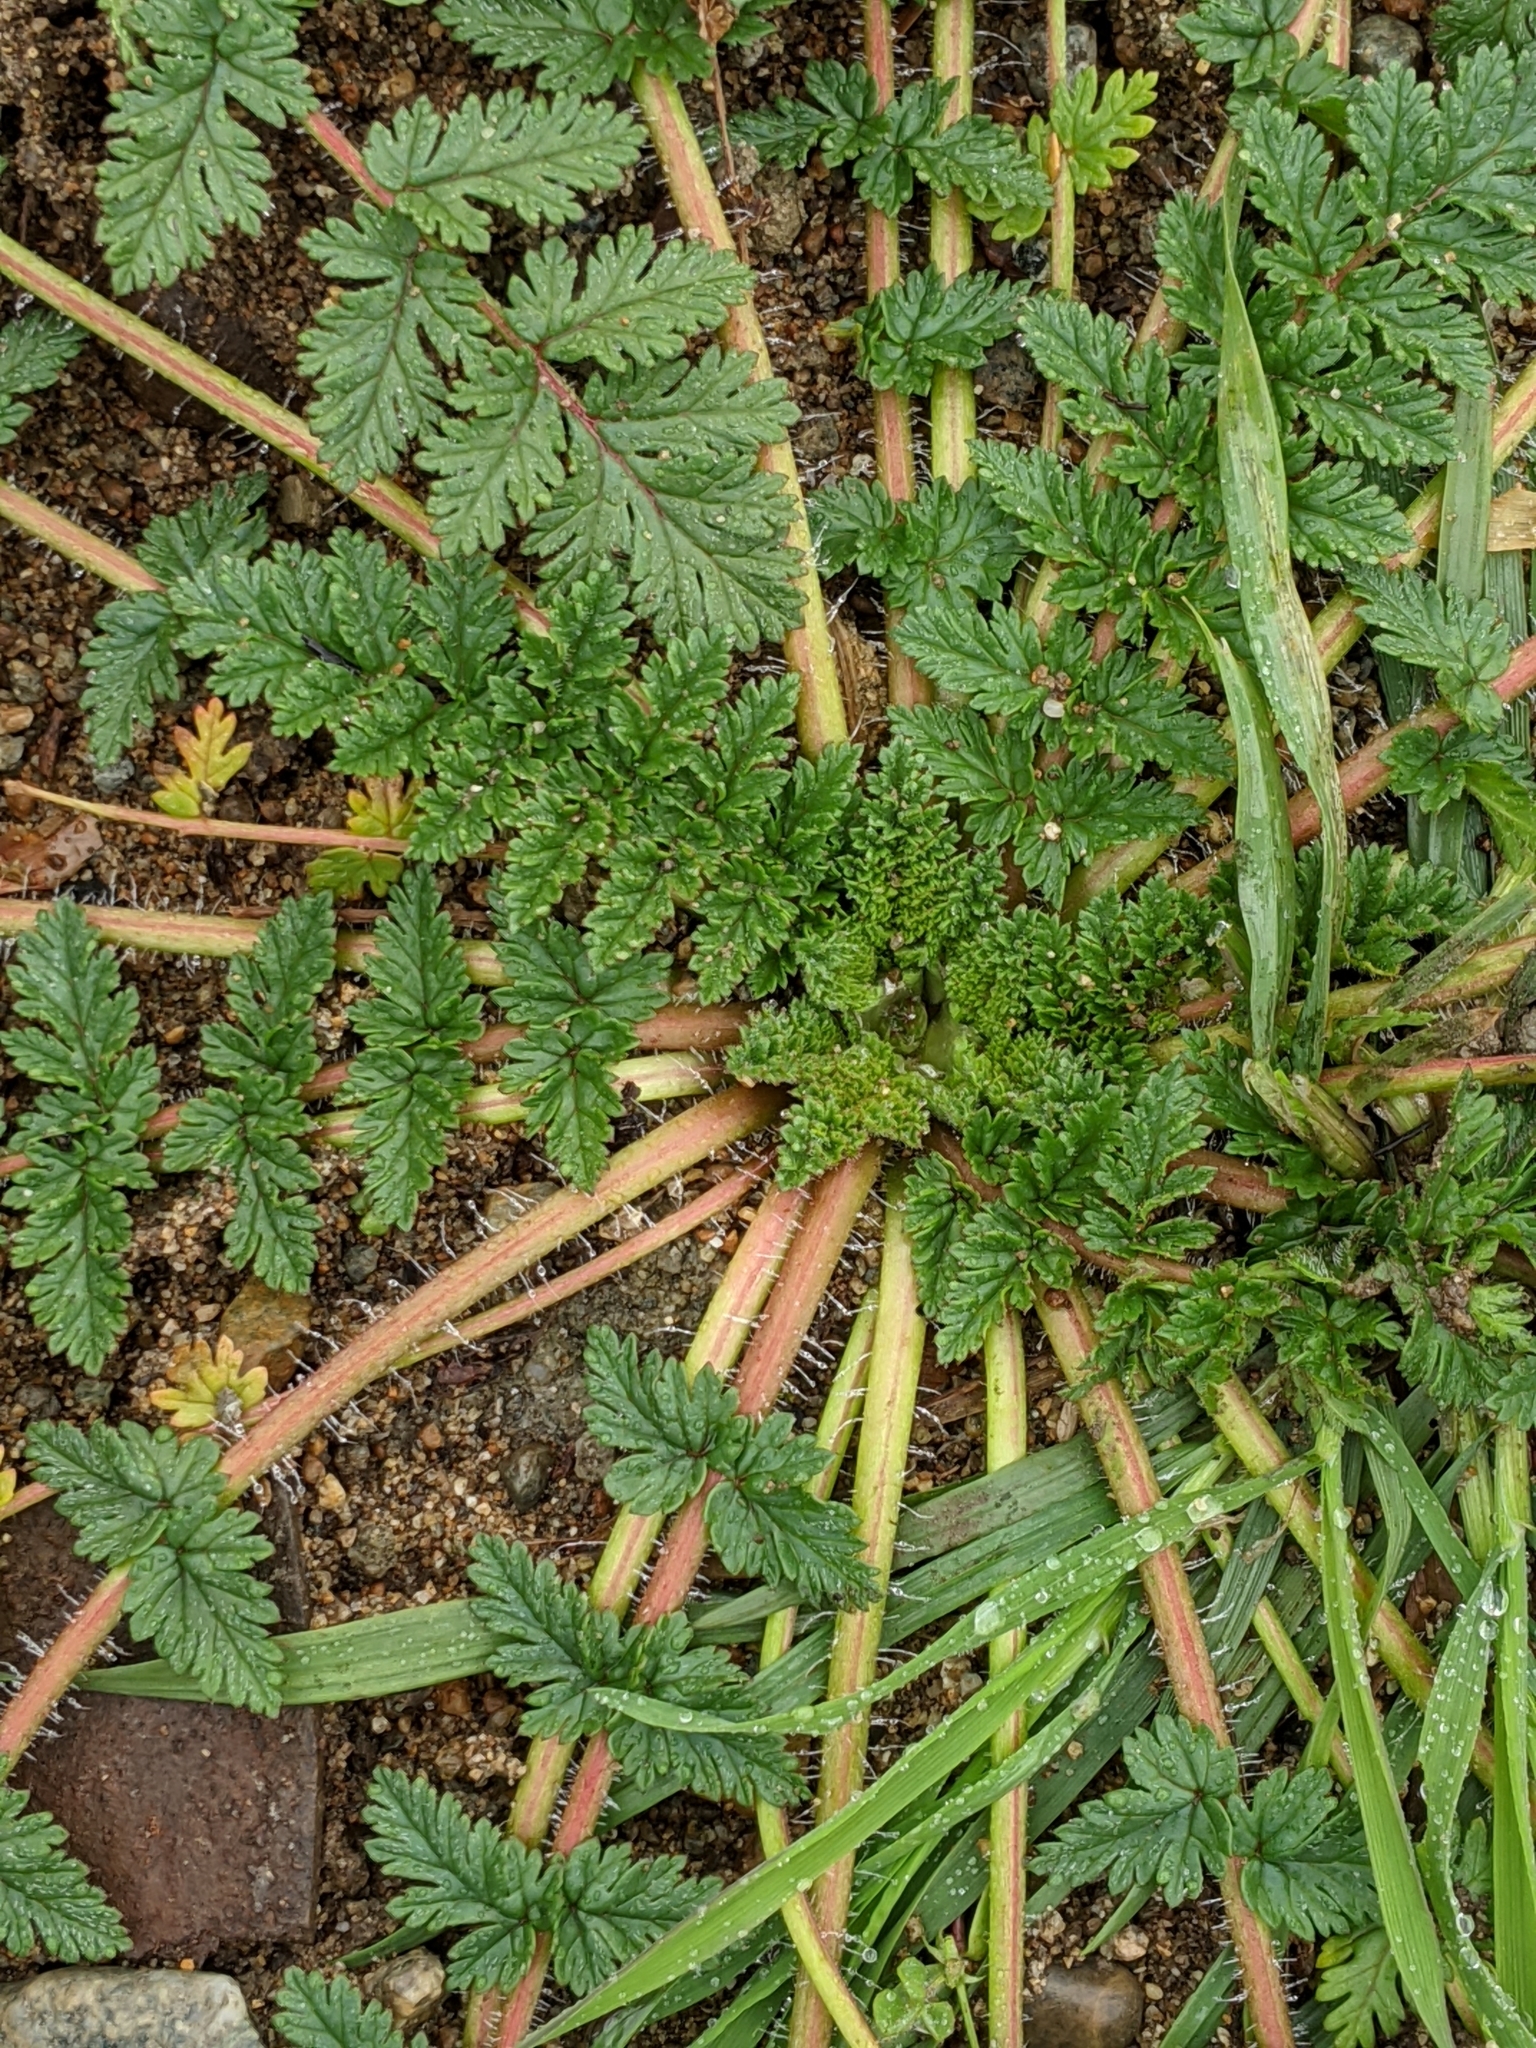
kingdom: Plantae
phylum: Tracheophyta
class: Magnoliopsida
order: Geraniales
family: Geraniaceae
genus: Erodium
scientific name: Erodium cicutarium
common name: Common stork's-bill
